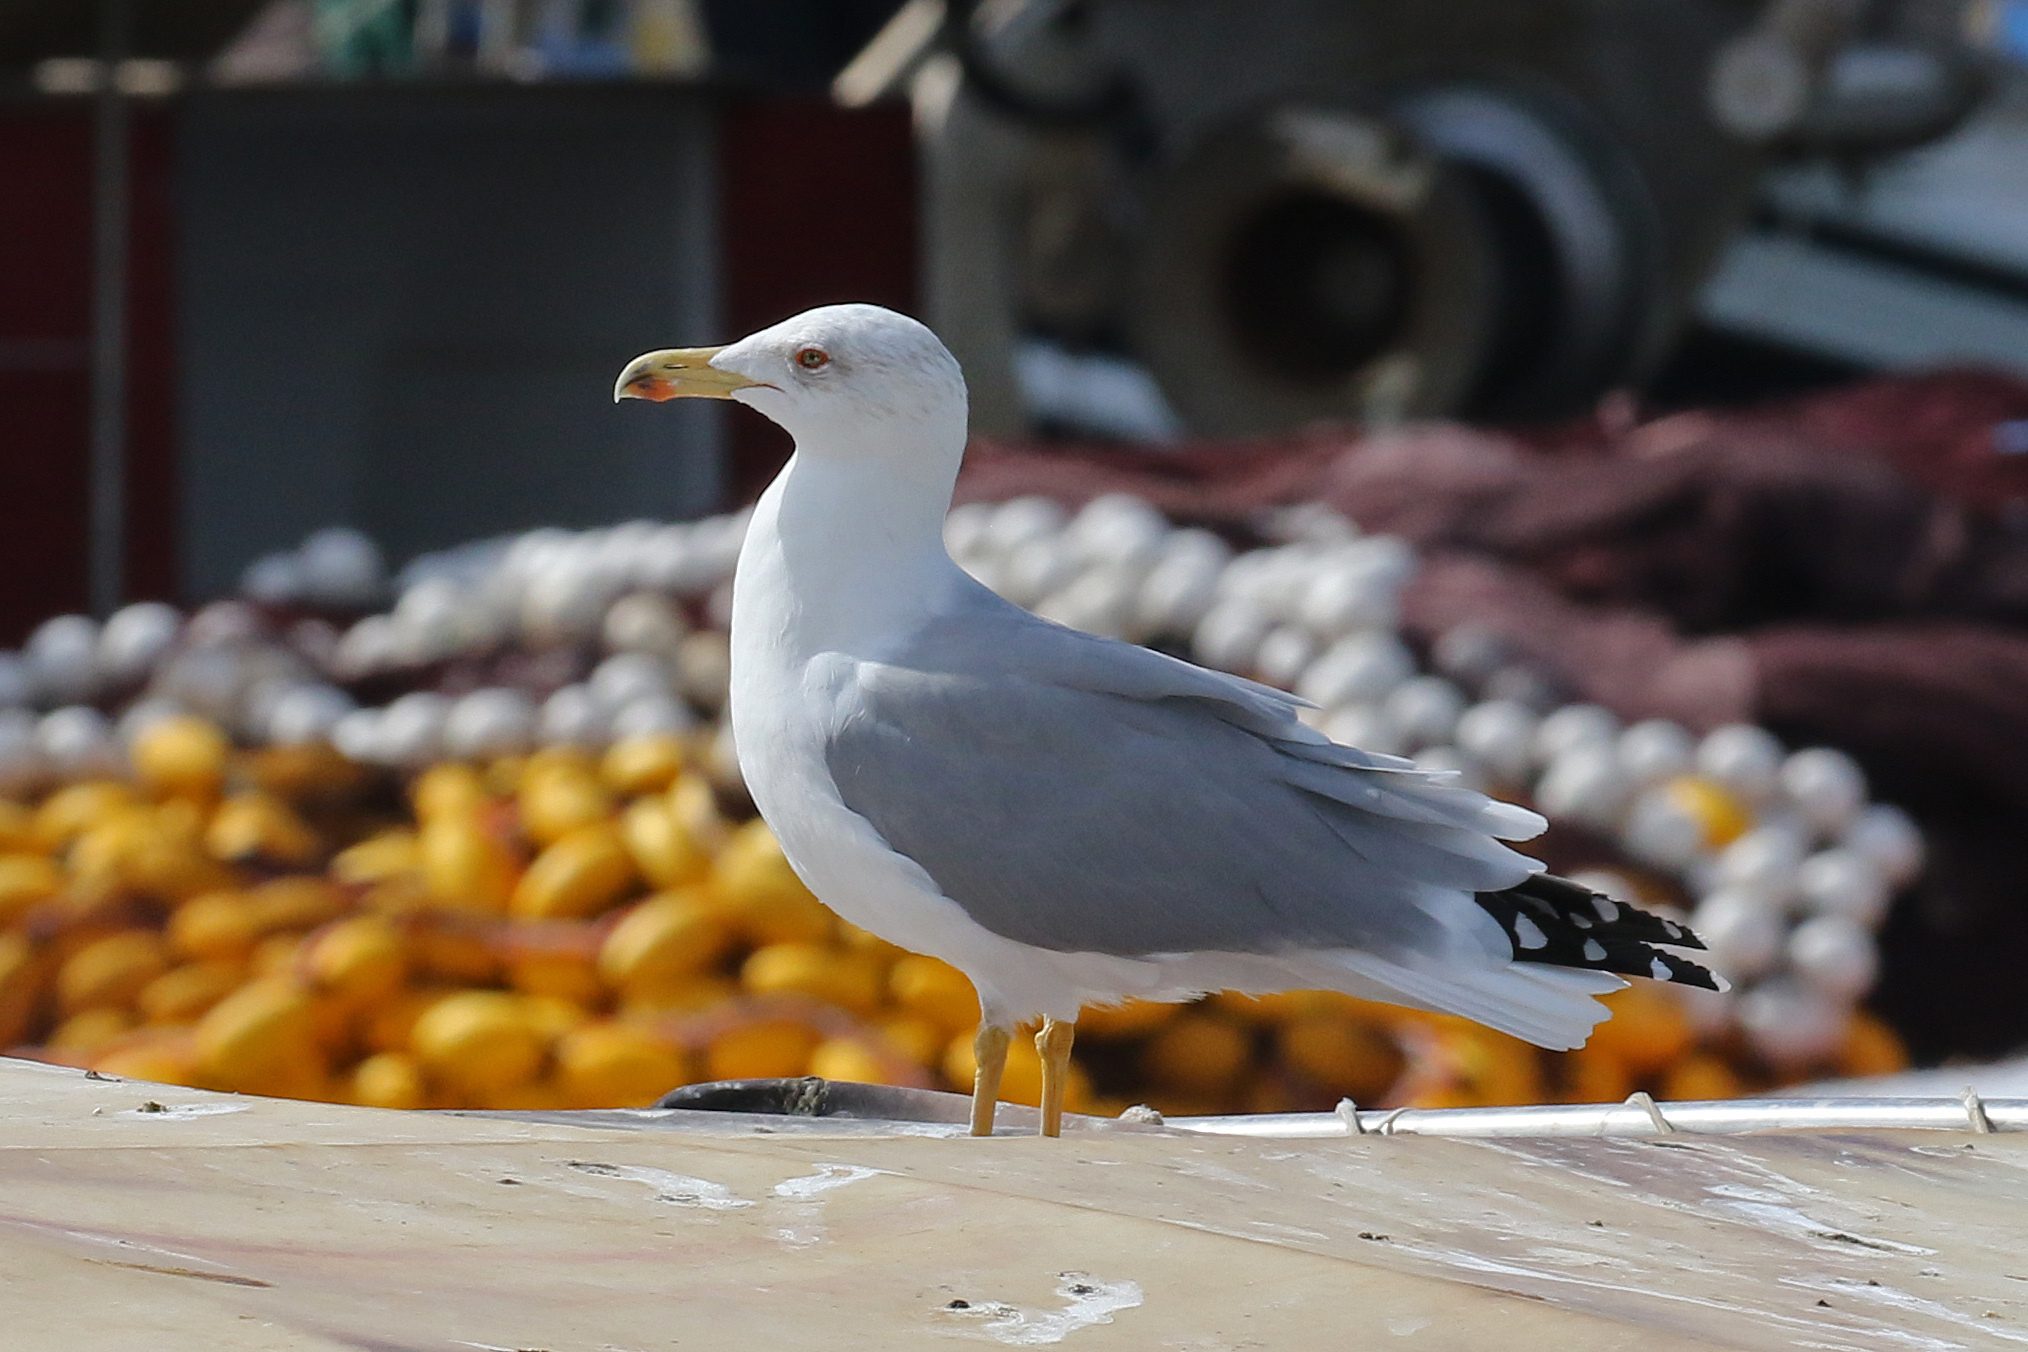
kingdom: Animalia
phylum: Chordata
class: Aves
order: Charadriiformes
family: Laridae
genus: Larus
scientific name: Larus michahellis
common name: Yellow-legged gull
